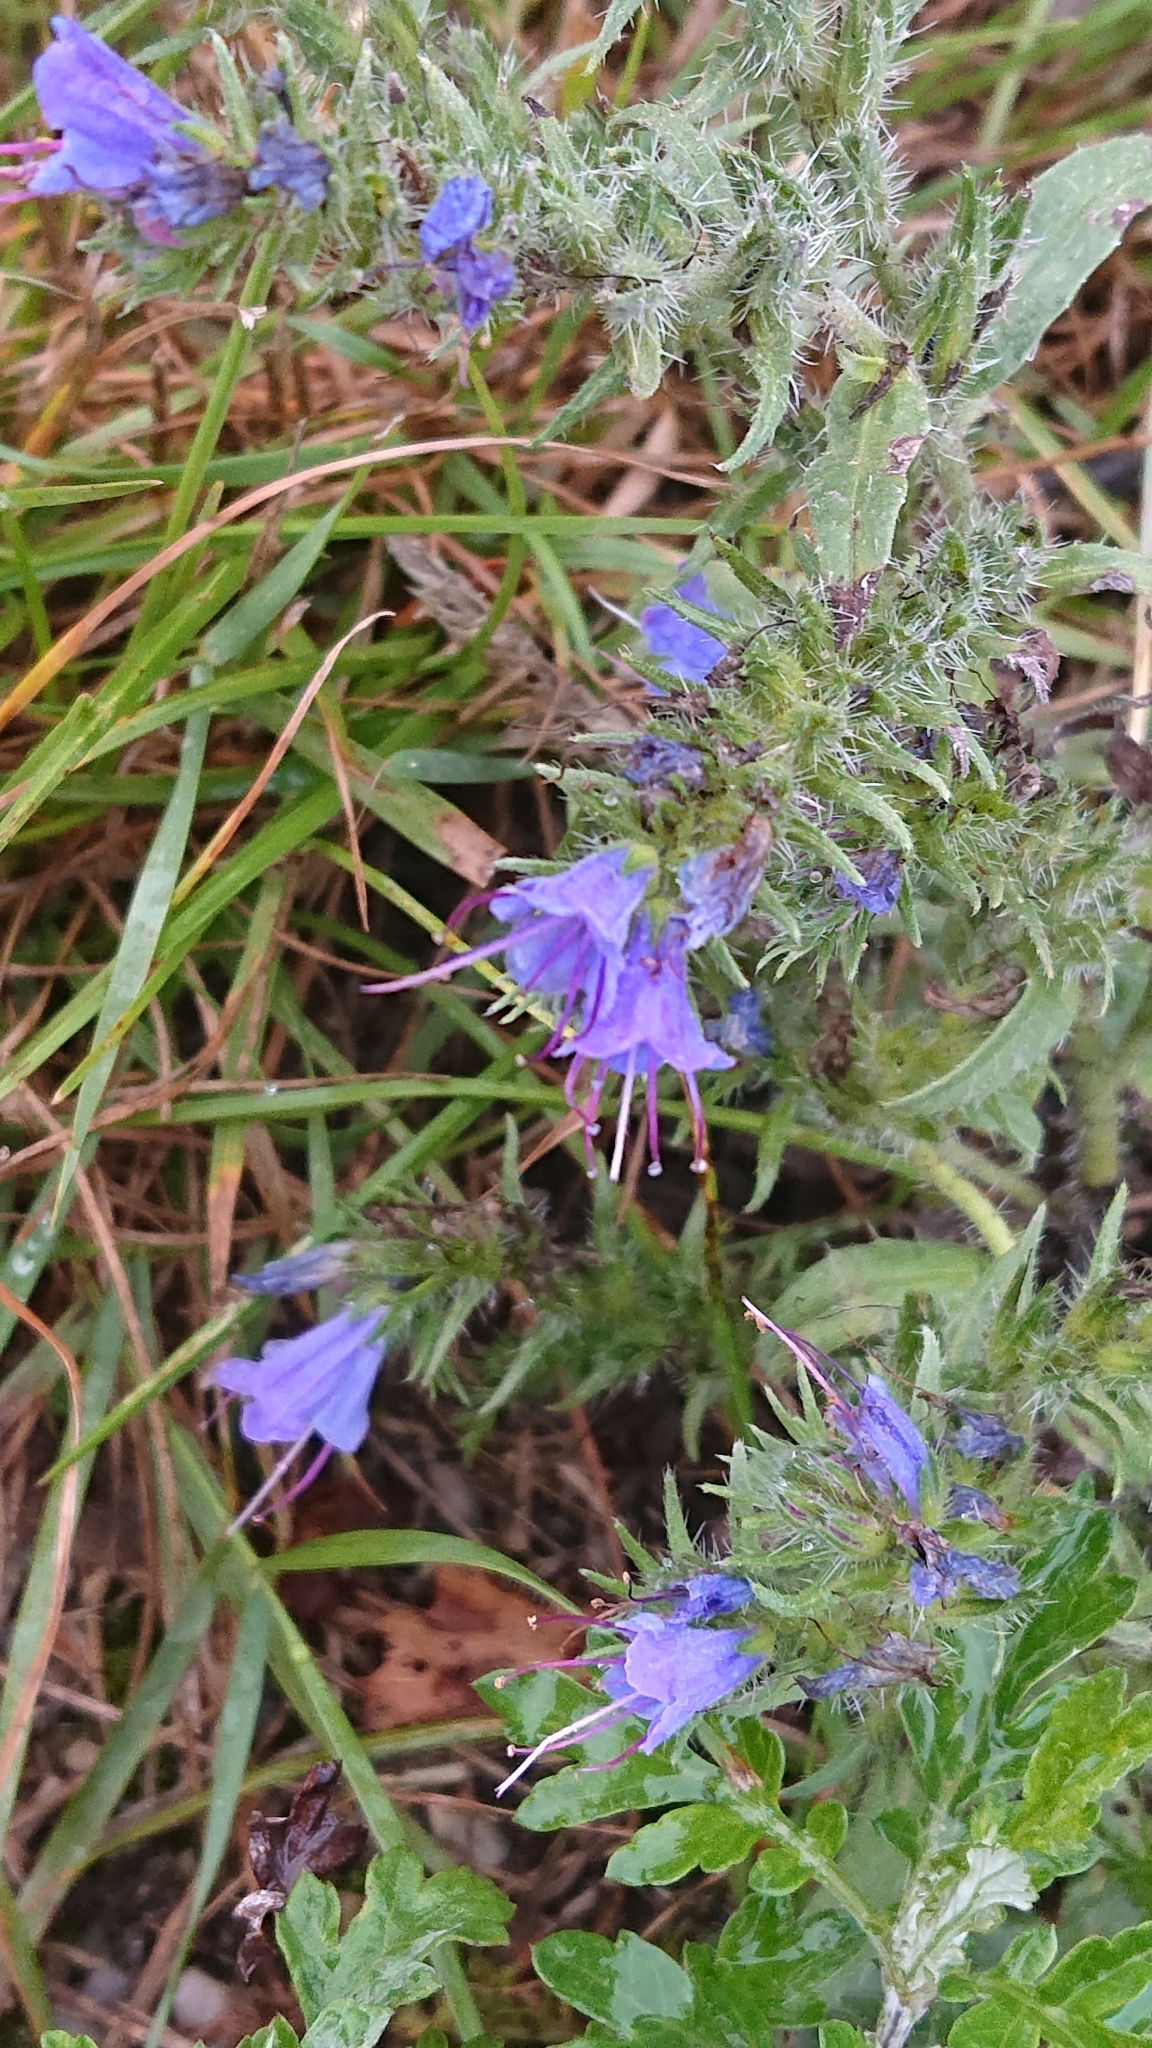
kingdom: Plantae
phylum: Tracheophyta
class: Magnoliopsida
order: Boraginales
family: Boraginaceae
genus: Echium
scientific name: Echium vulgare
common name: Common viper's bugloss
